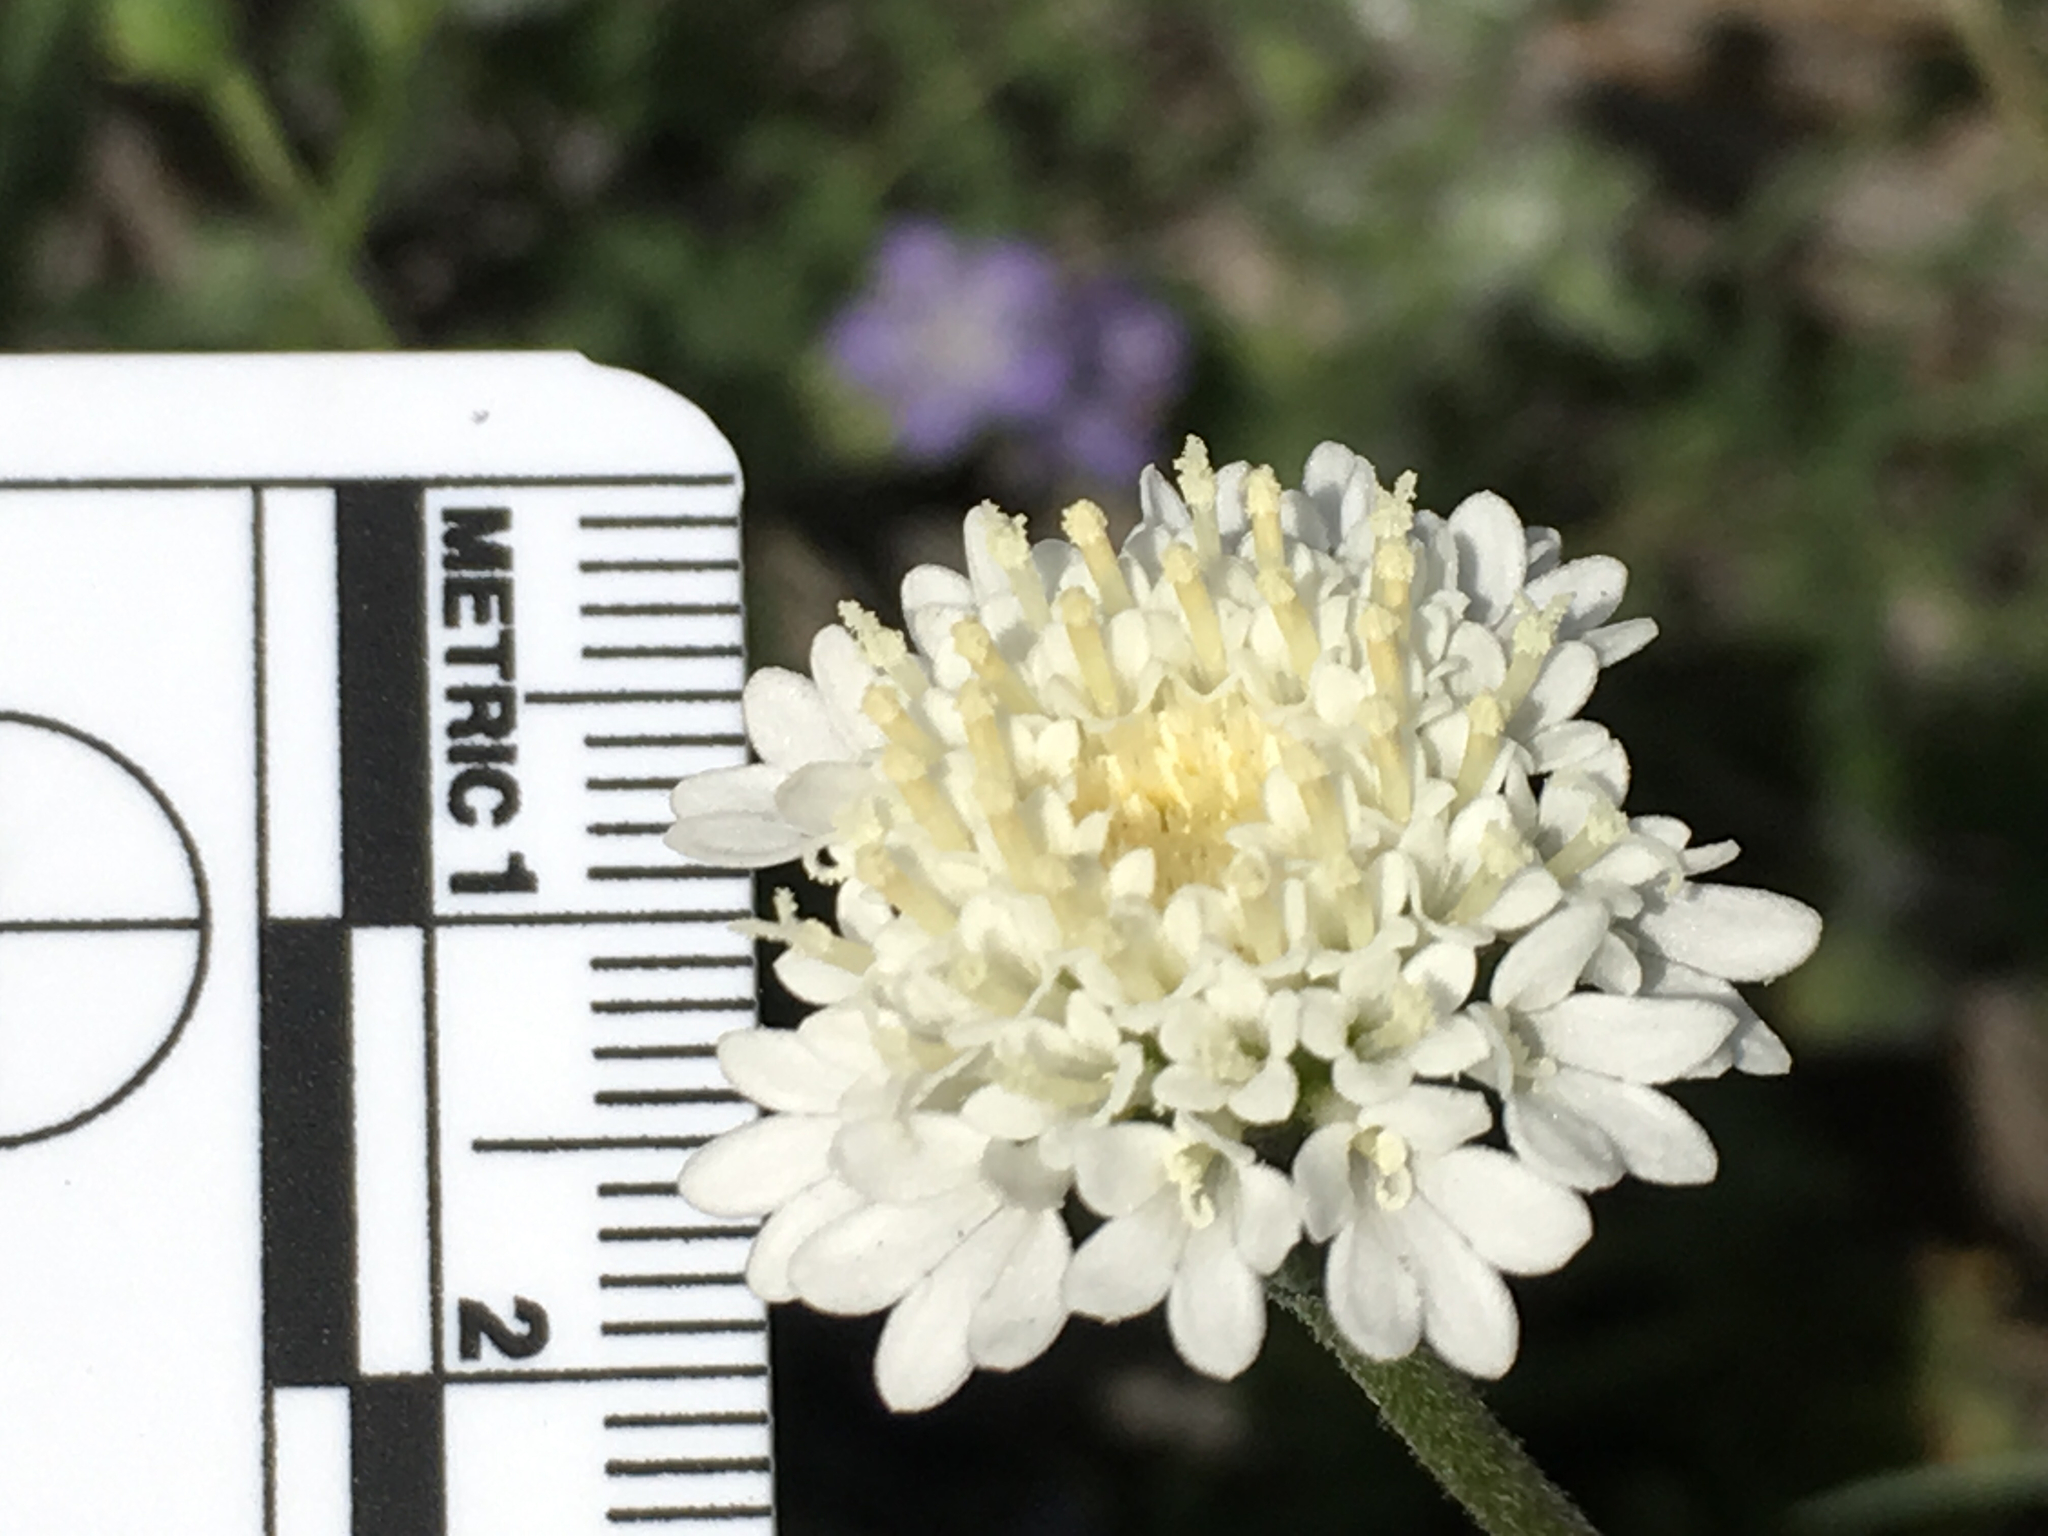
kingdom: Plantae
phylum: Tracheophyta
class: Magnoliopsida
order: Asterales
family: Asteraceae
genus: Chaenactis
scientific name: Chaenactis fremontii
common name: Fremont pincushion
